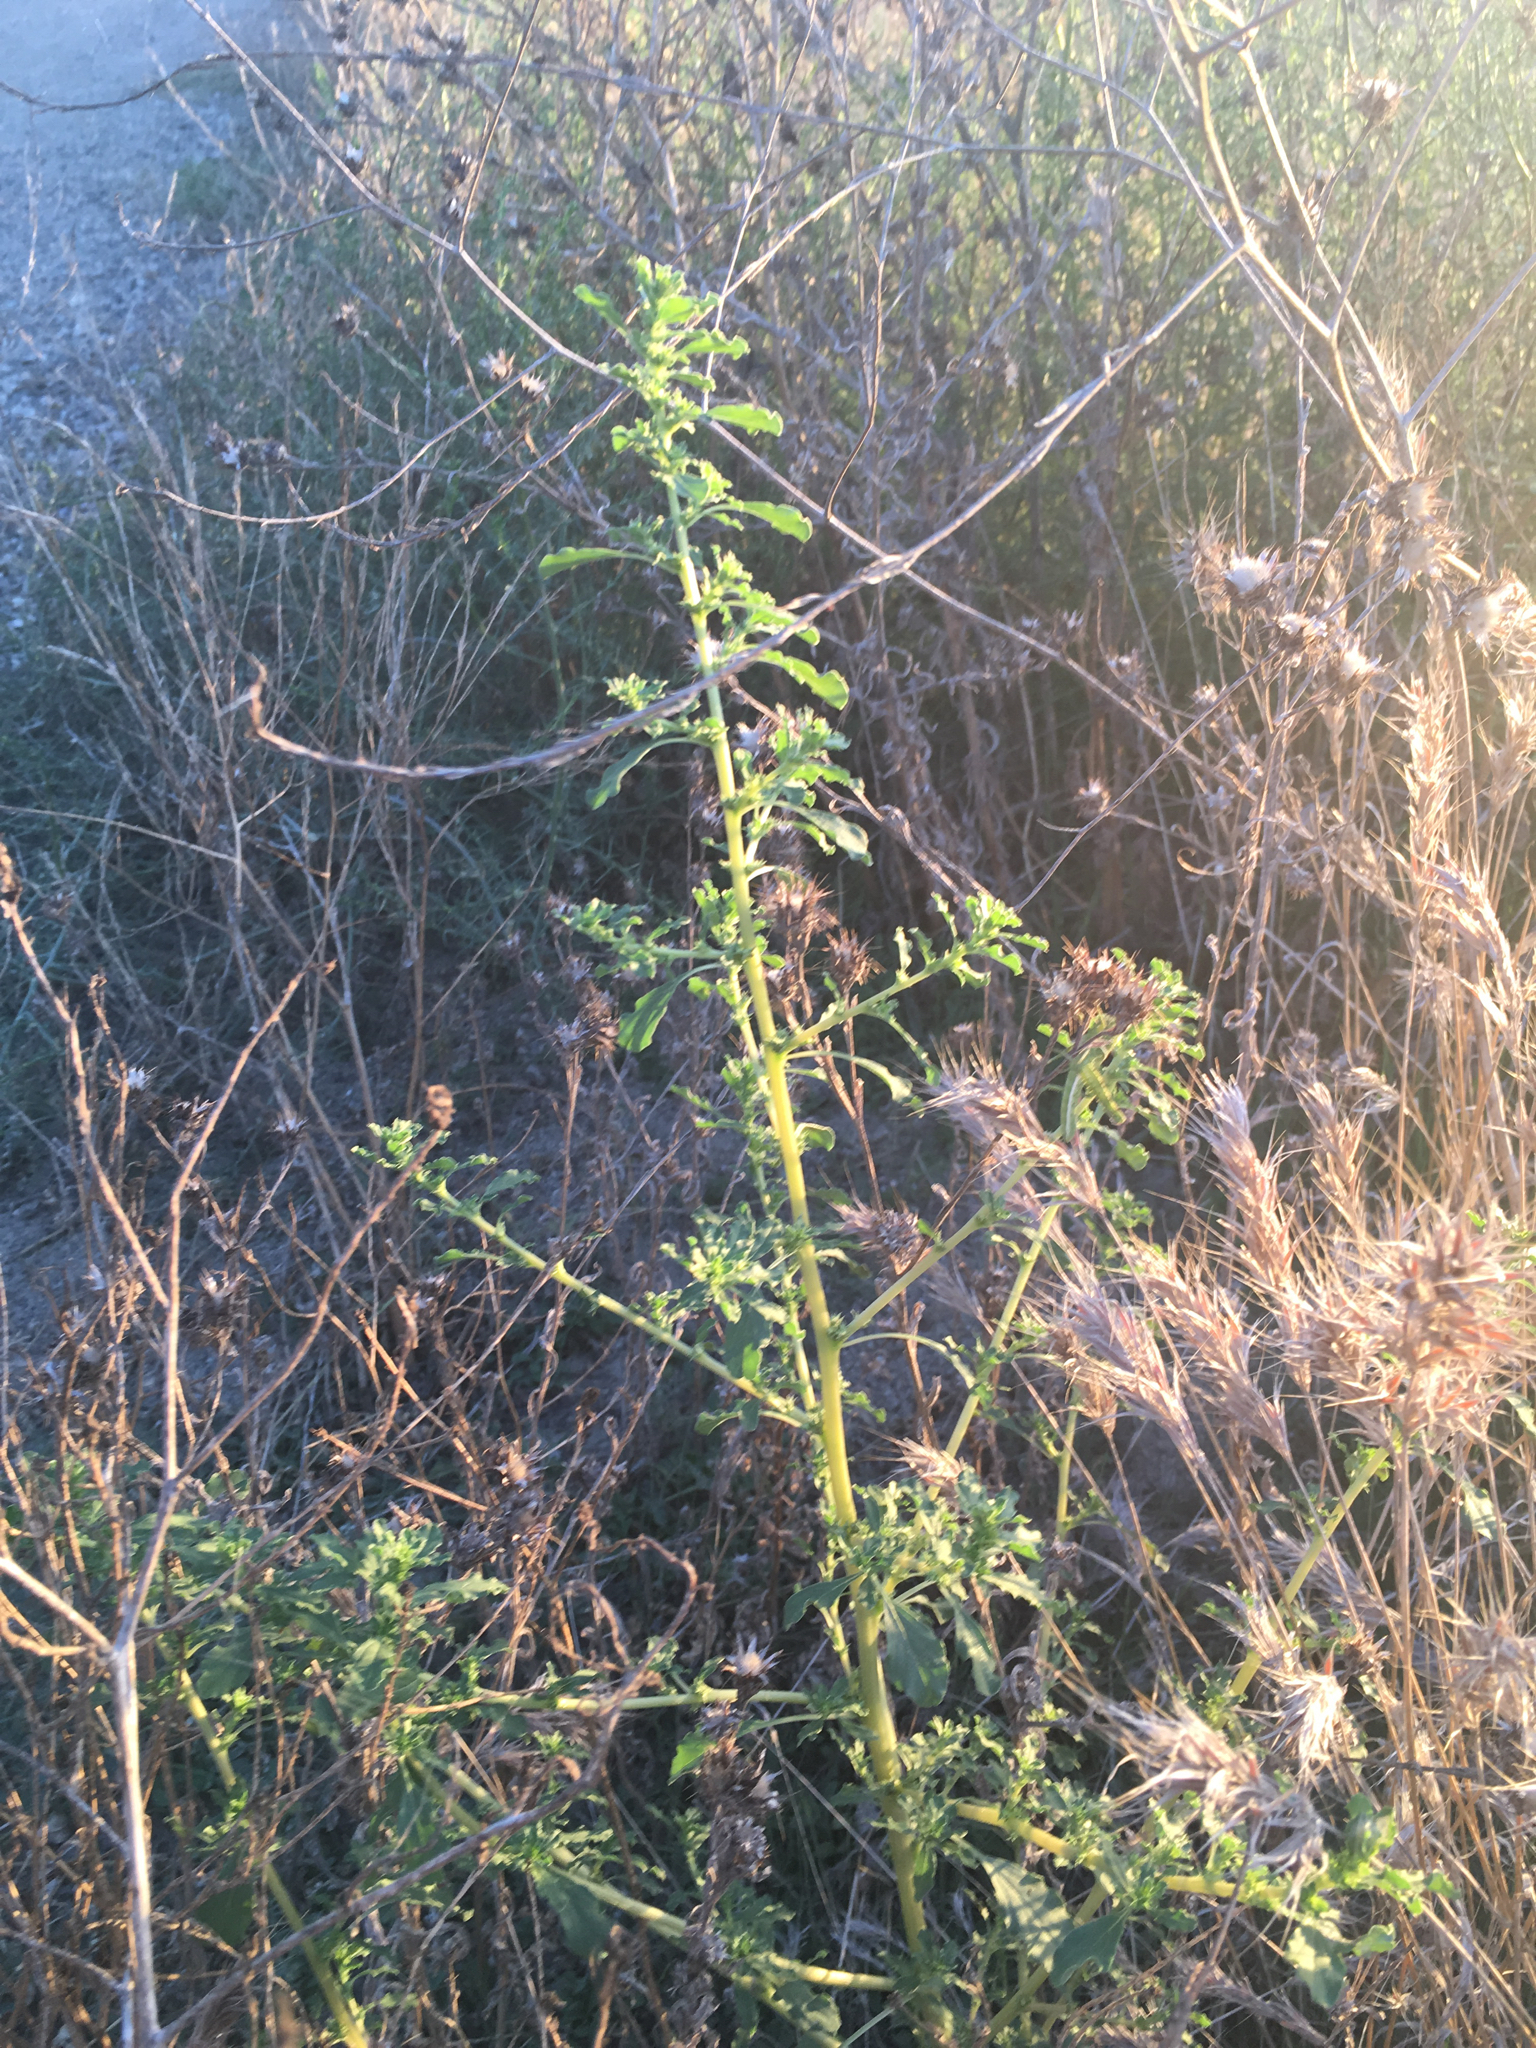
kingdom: Plantae
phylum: Tracheophyta
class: Magnoliopsida
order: Caryophyllales
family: Amaranthaceae
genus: Amaranthus
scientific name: Amaranthus albus
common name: White pigweed
